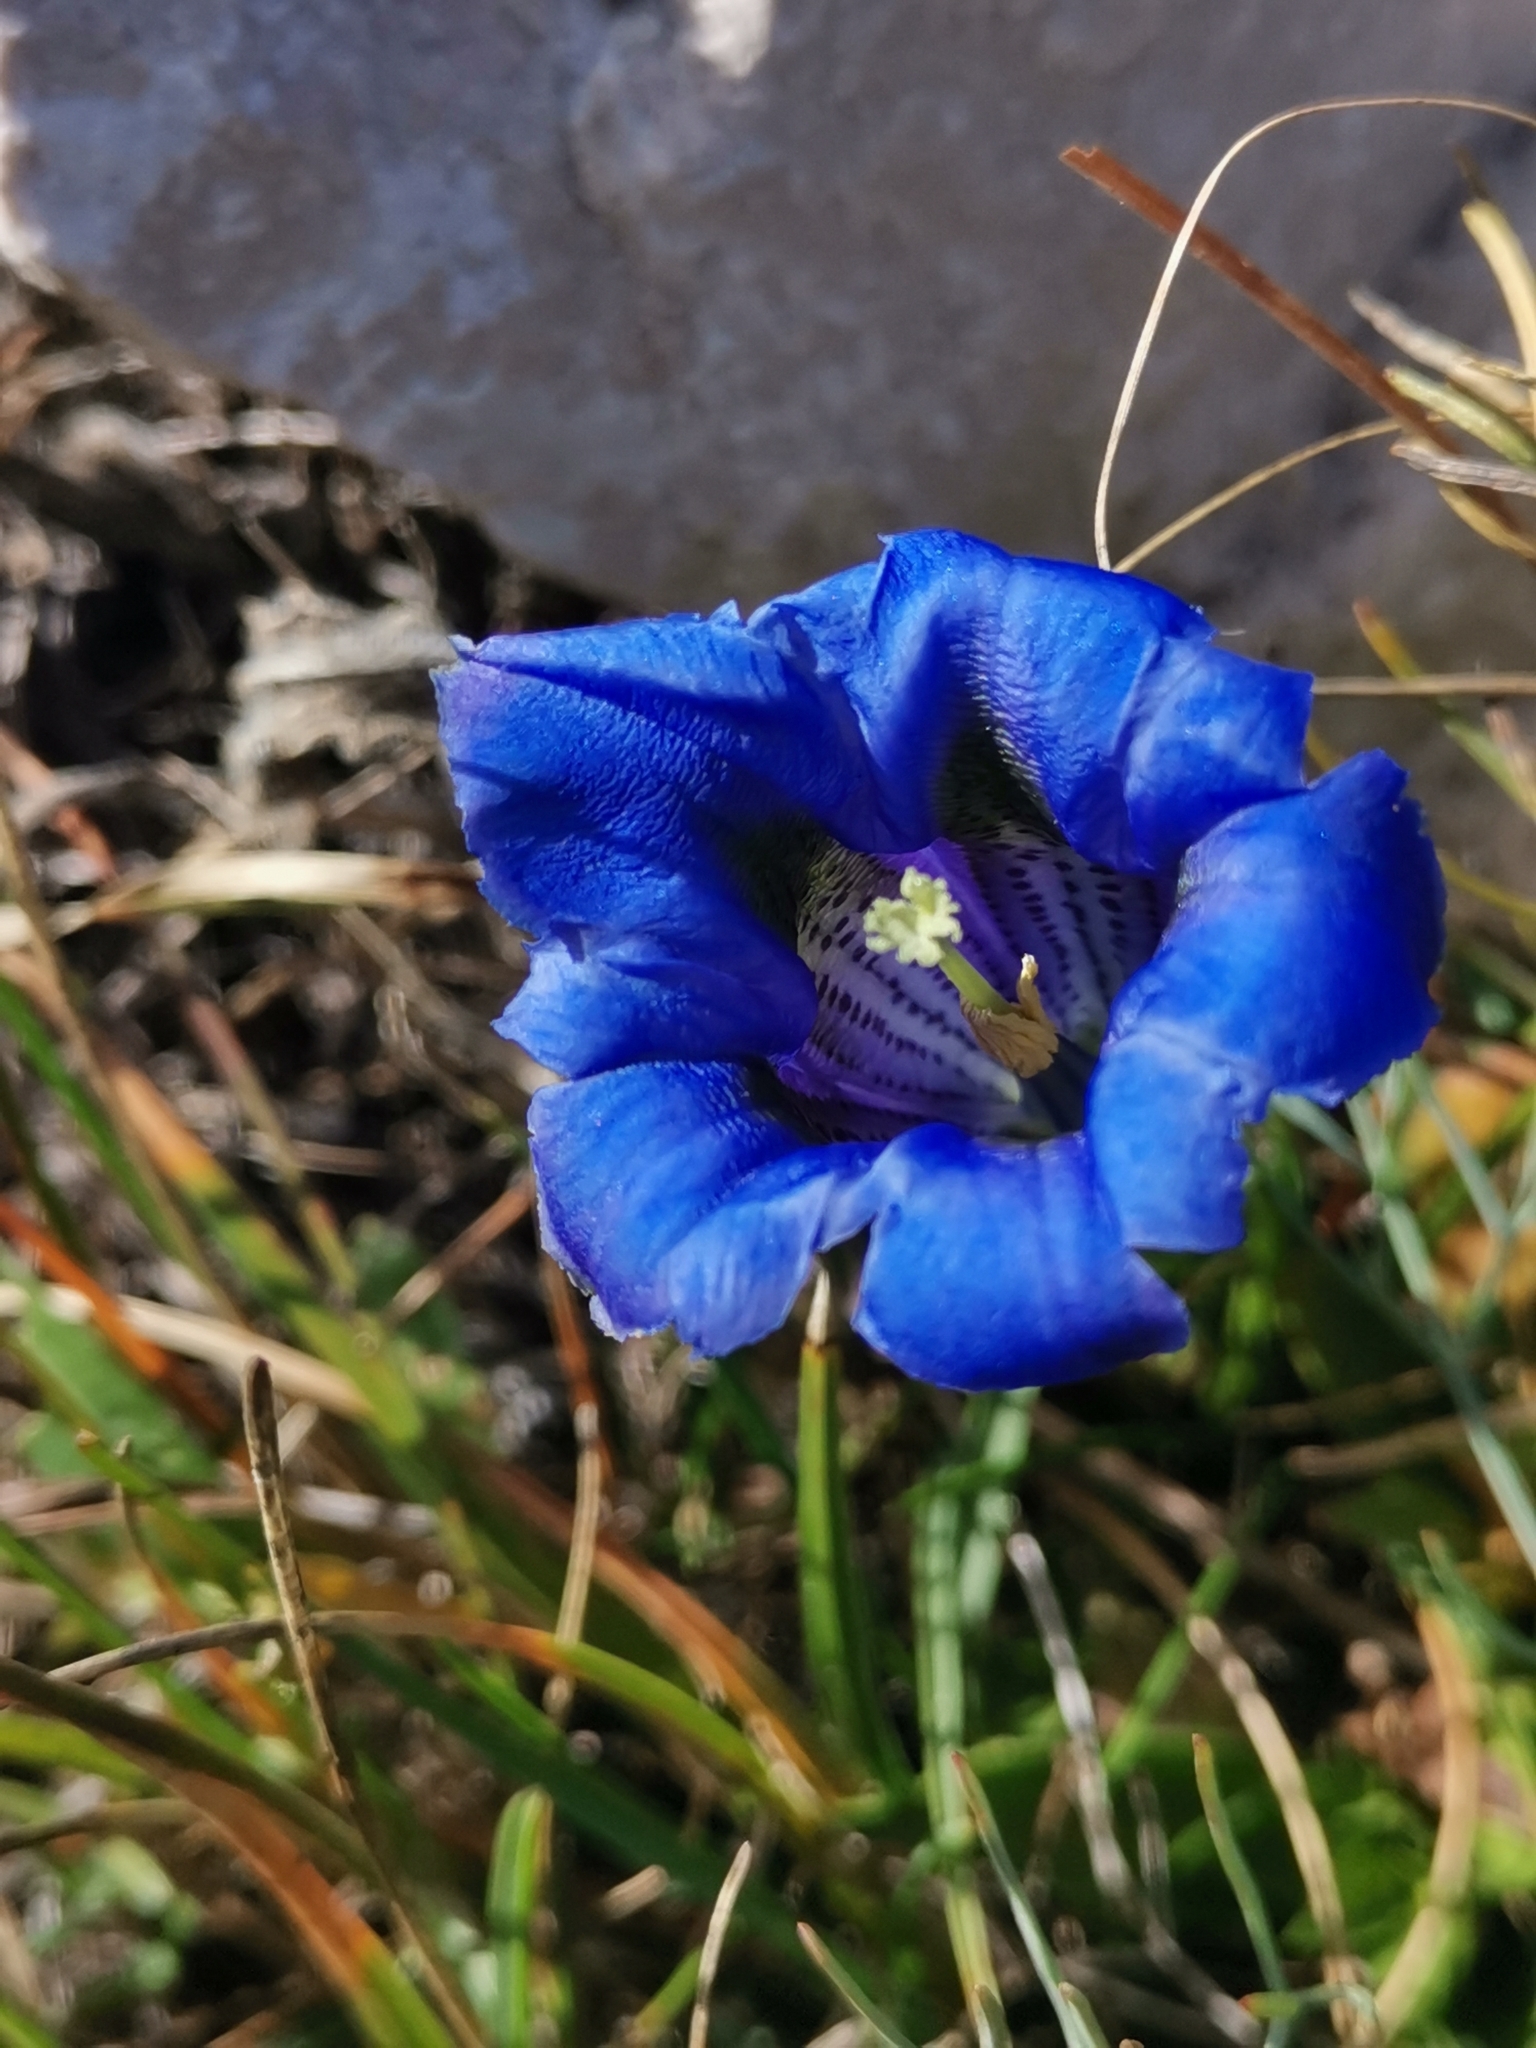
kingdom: Plantae
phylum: Tracheophyta
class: Magnoliopsida
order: Gentianales
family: Gentianaceae
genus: Gentiana
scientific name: Gentiana clusii
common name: Trumpet gentian
